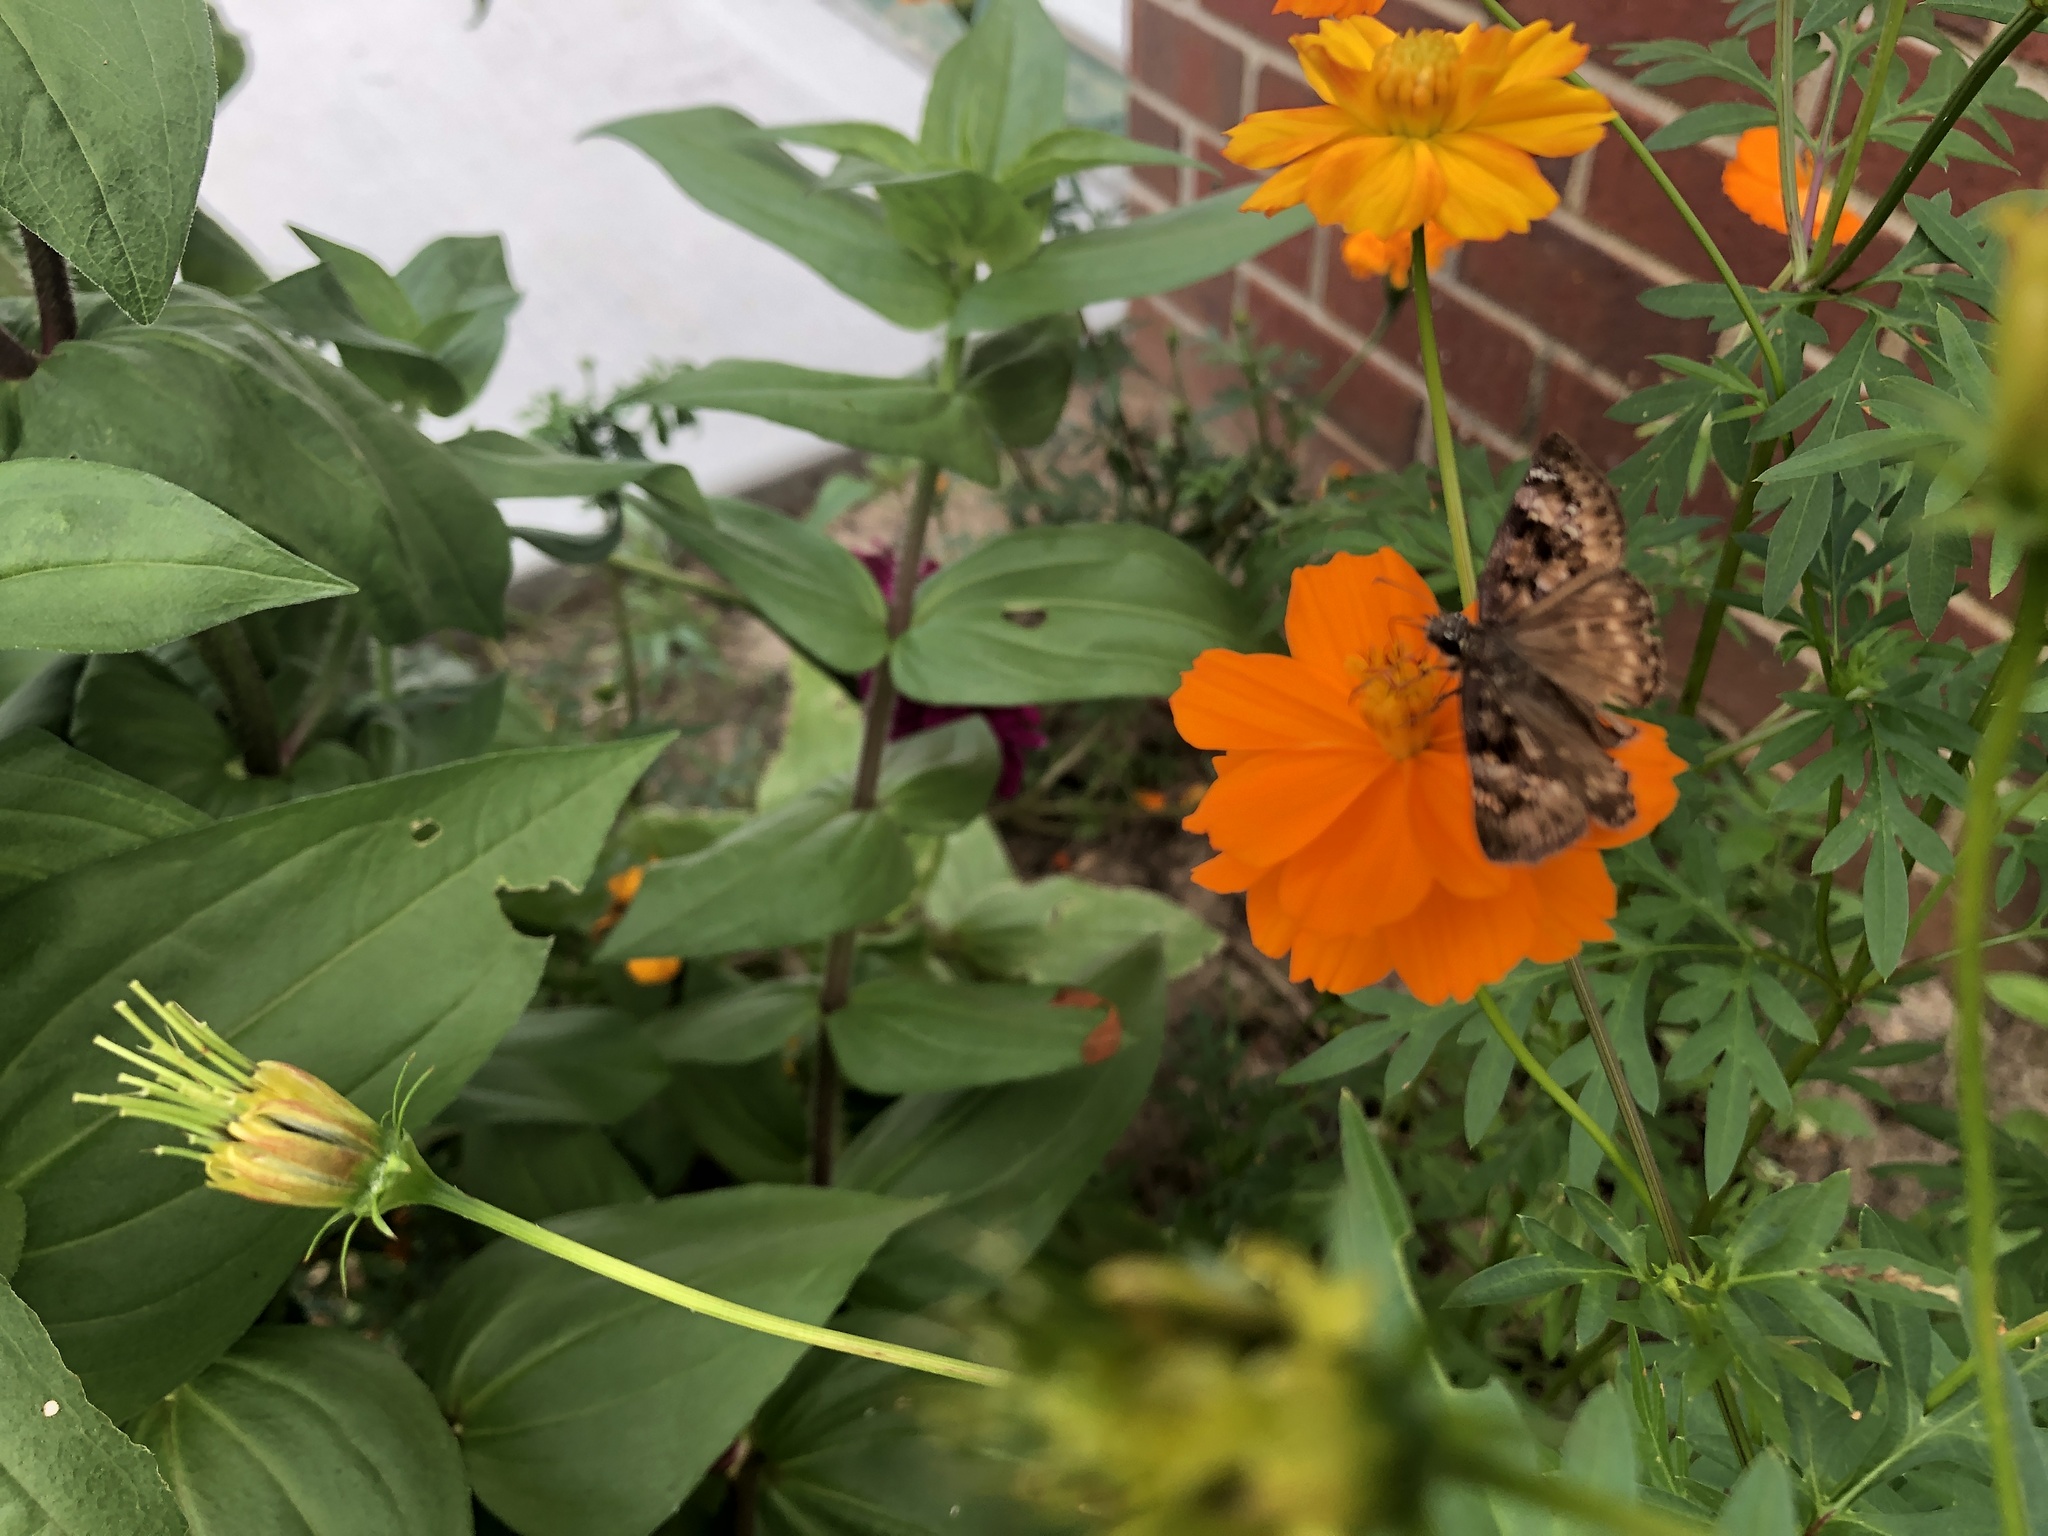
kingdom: Animalia
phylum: Arthropoda
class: Insecta
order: Lepidoptera
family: Hesperiidae
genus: Erynnis
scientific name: Erynnis horatius
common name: Horace's duskywing
